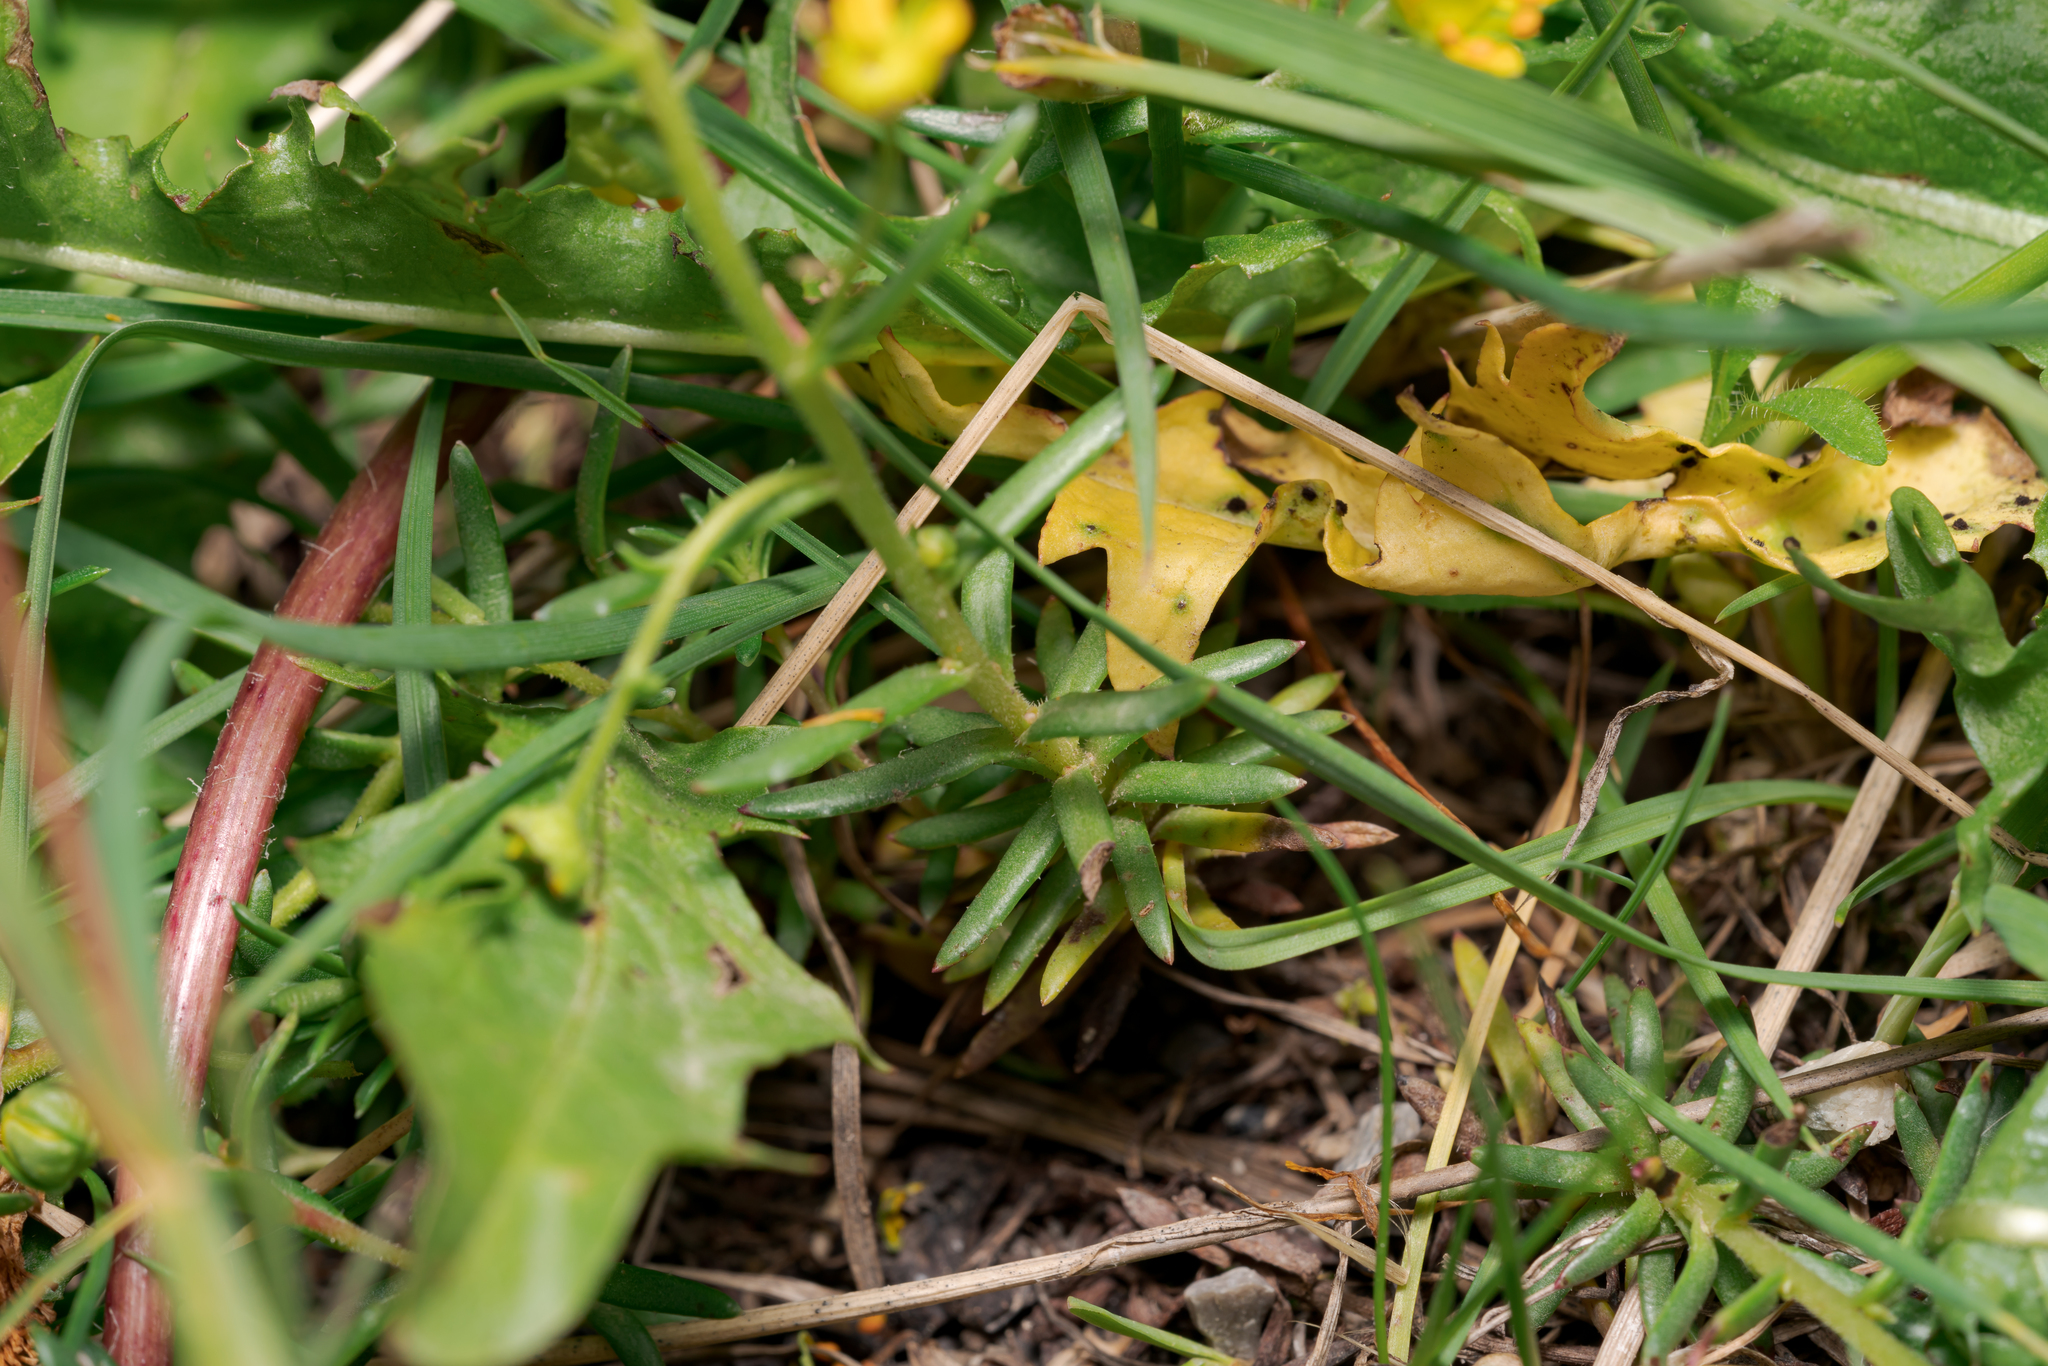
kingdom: Plantae
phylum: Tracheophyta
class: Magnoliopsida
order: Saxifragales
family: Saxifragaceae
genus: Saxifraga
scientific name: Saxifraga aizoides
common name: Yellow mountain saxifrage
